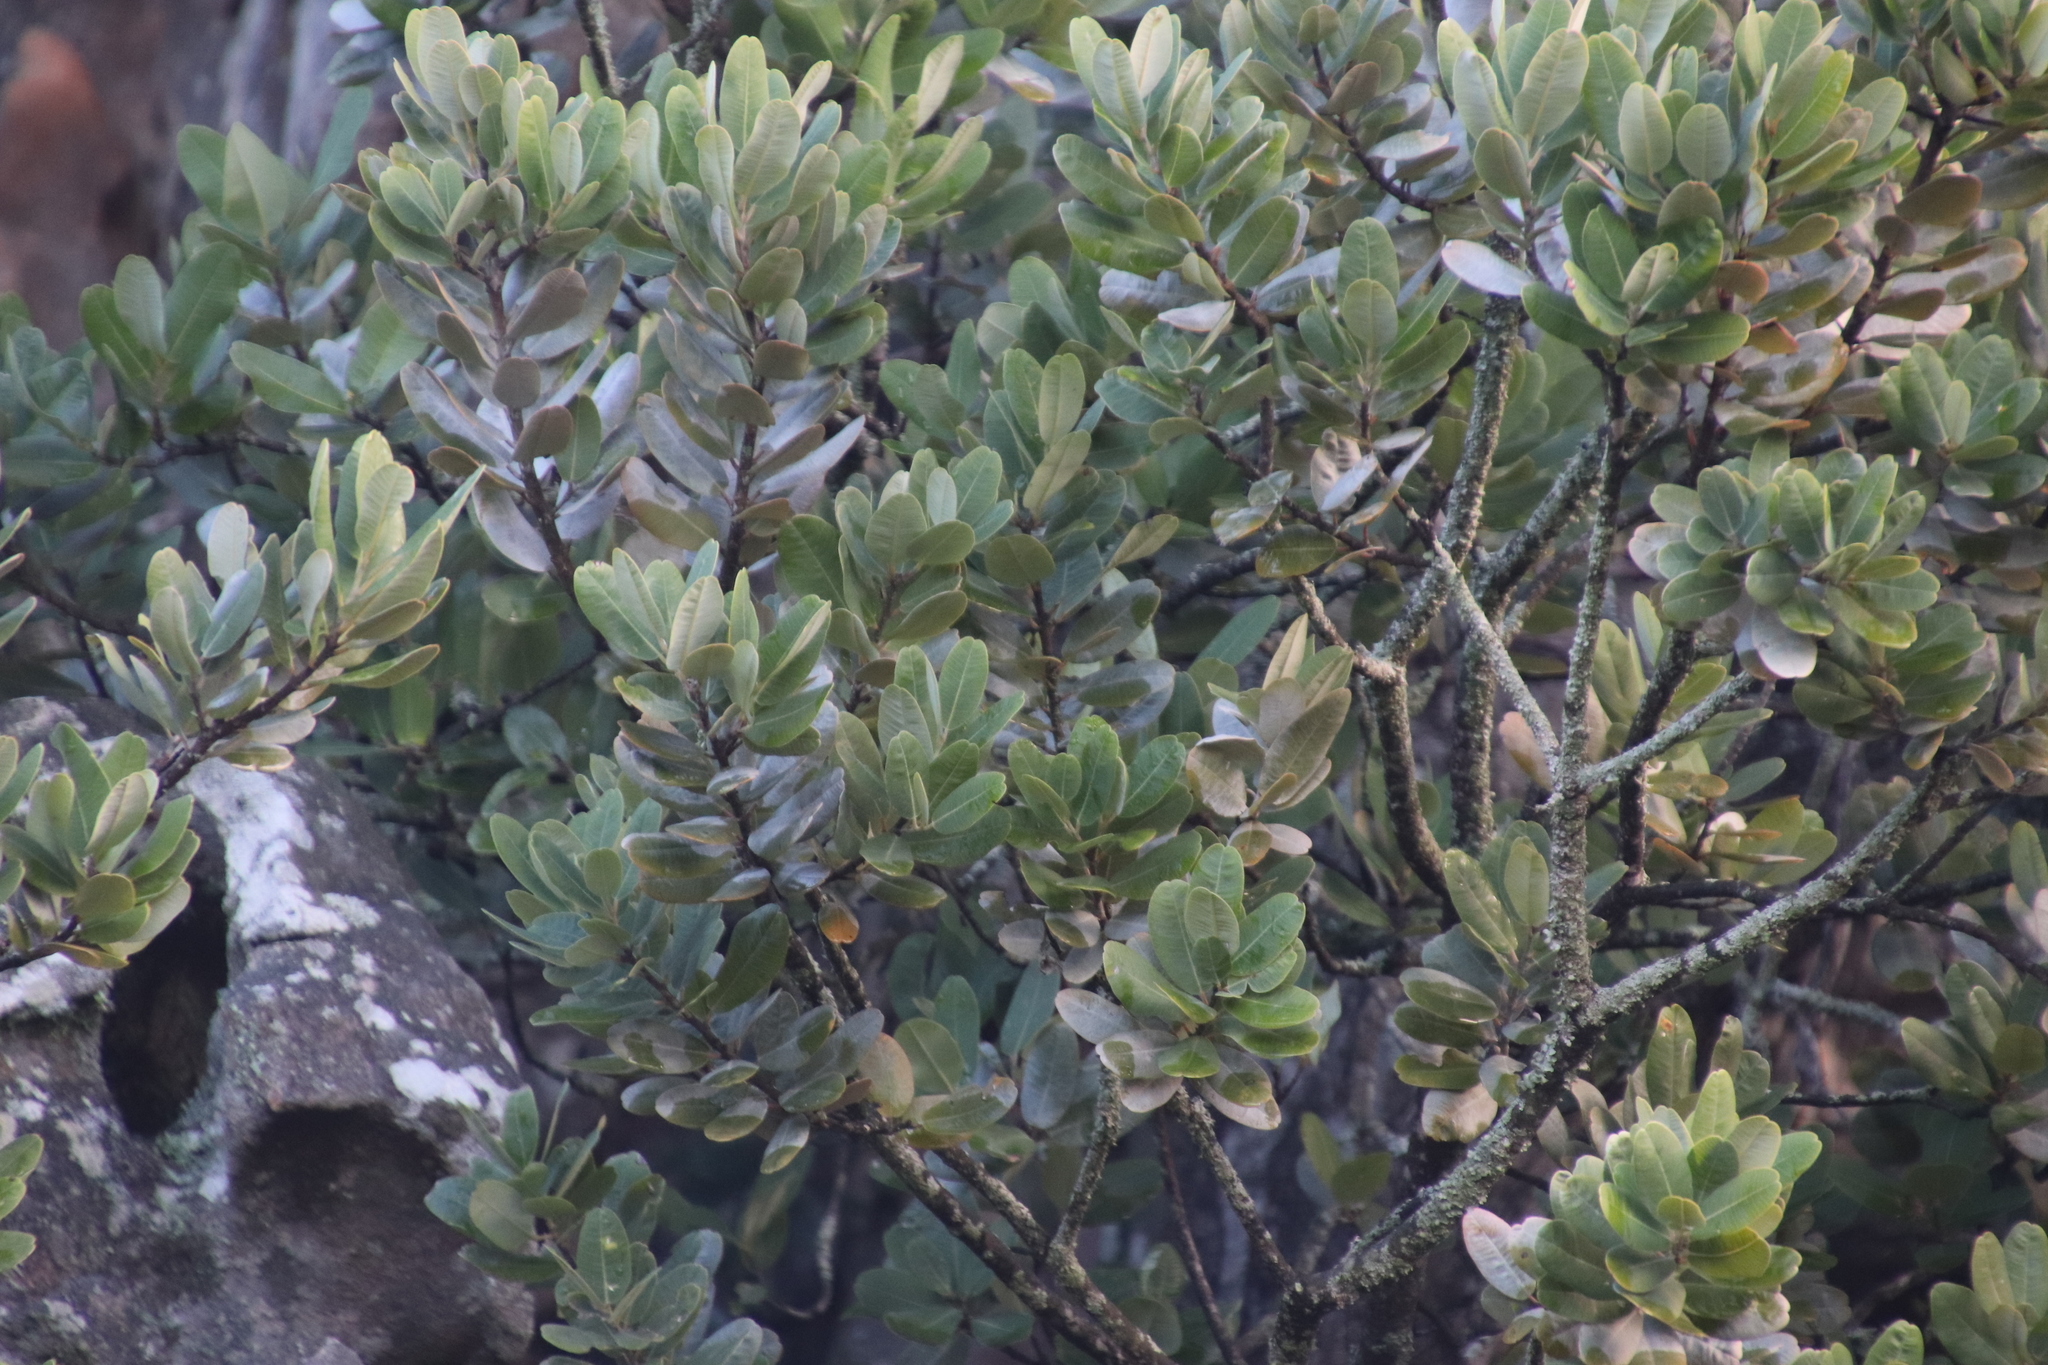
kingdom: Plantae
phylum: Tracheophyta
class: Magnoliopsida
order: Sapindales
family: Anacardiaceae
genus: Heeria
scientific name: Heeria argentea
